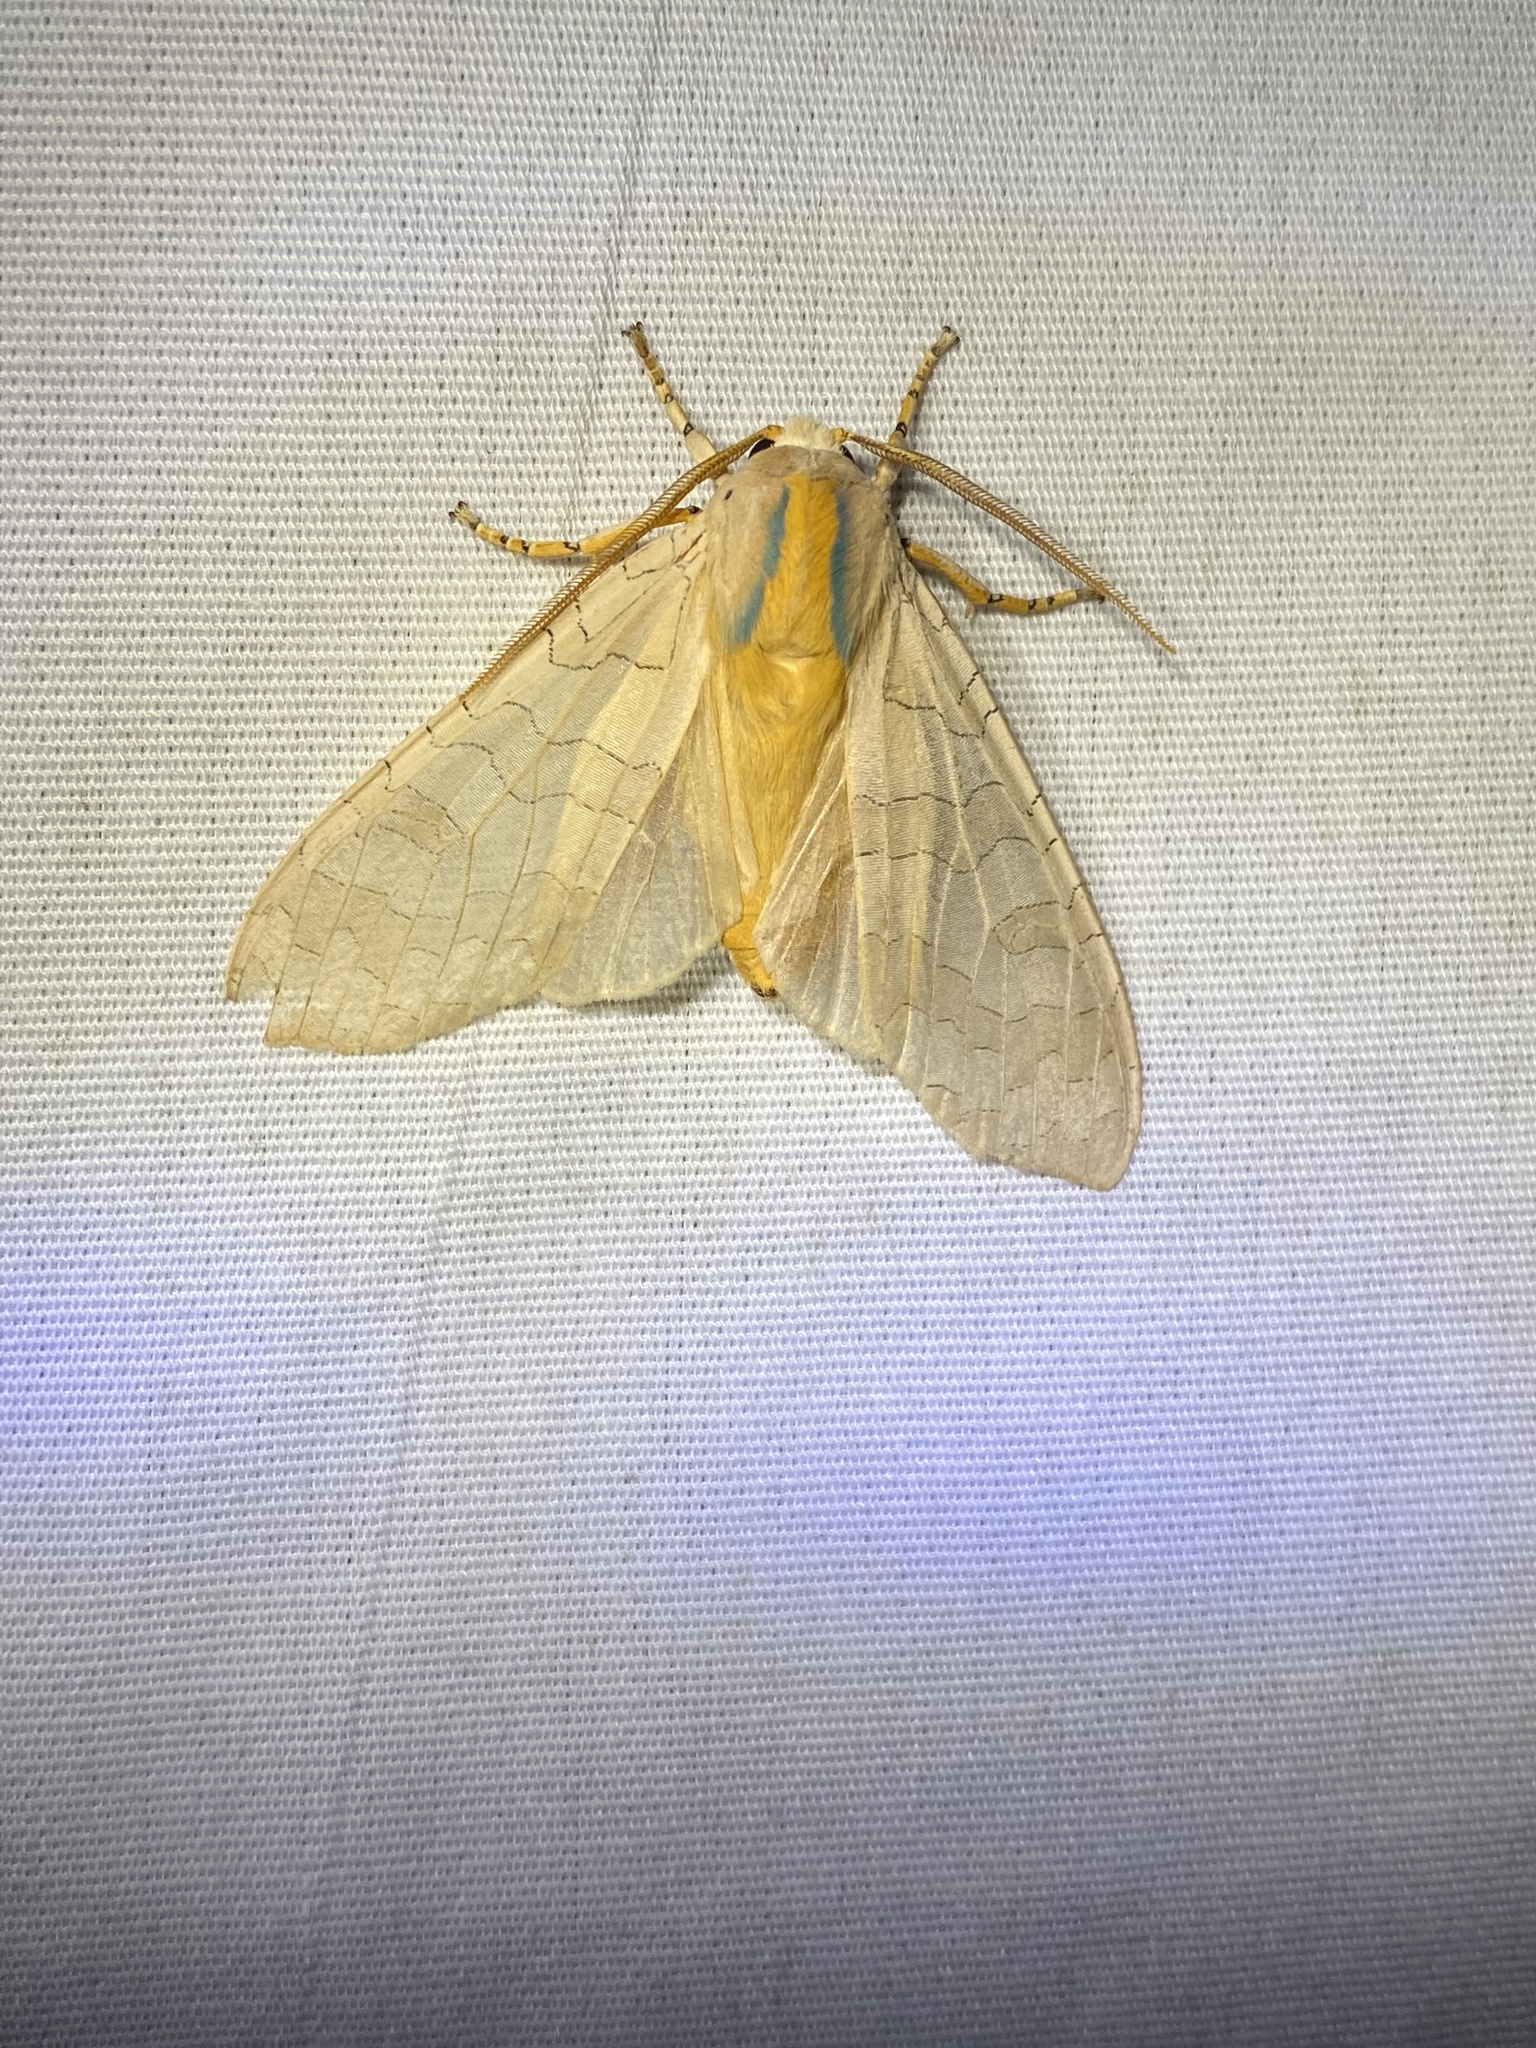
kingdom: Animalia
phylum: Arthropoda
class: Insecta
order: Lepidoptera
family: Erebidae
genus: Halysidota
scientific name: Halysidota
